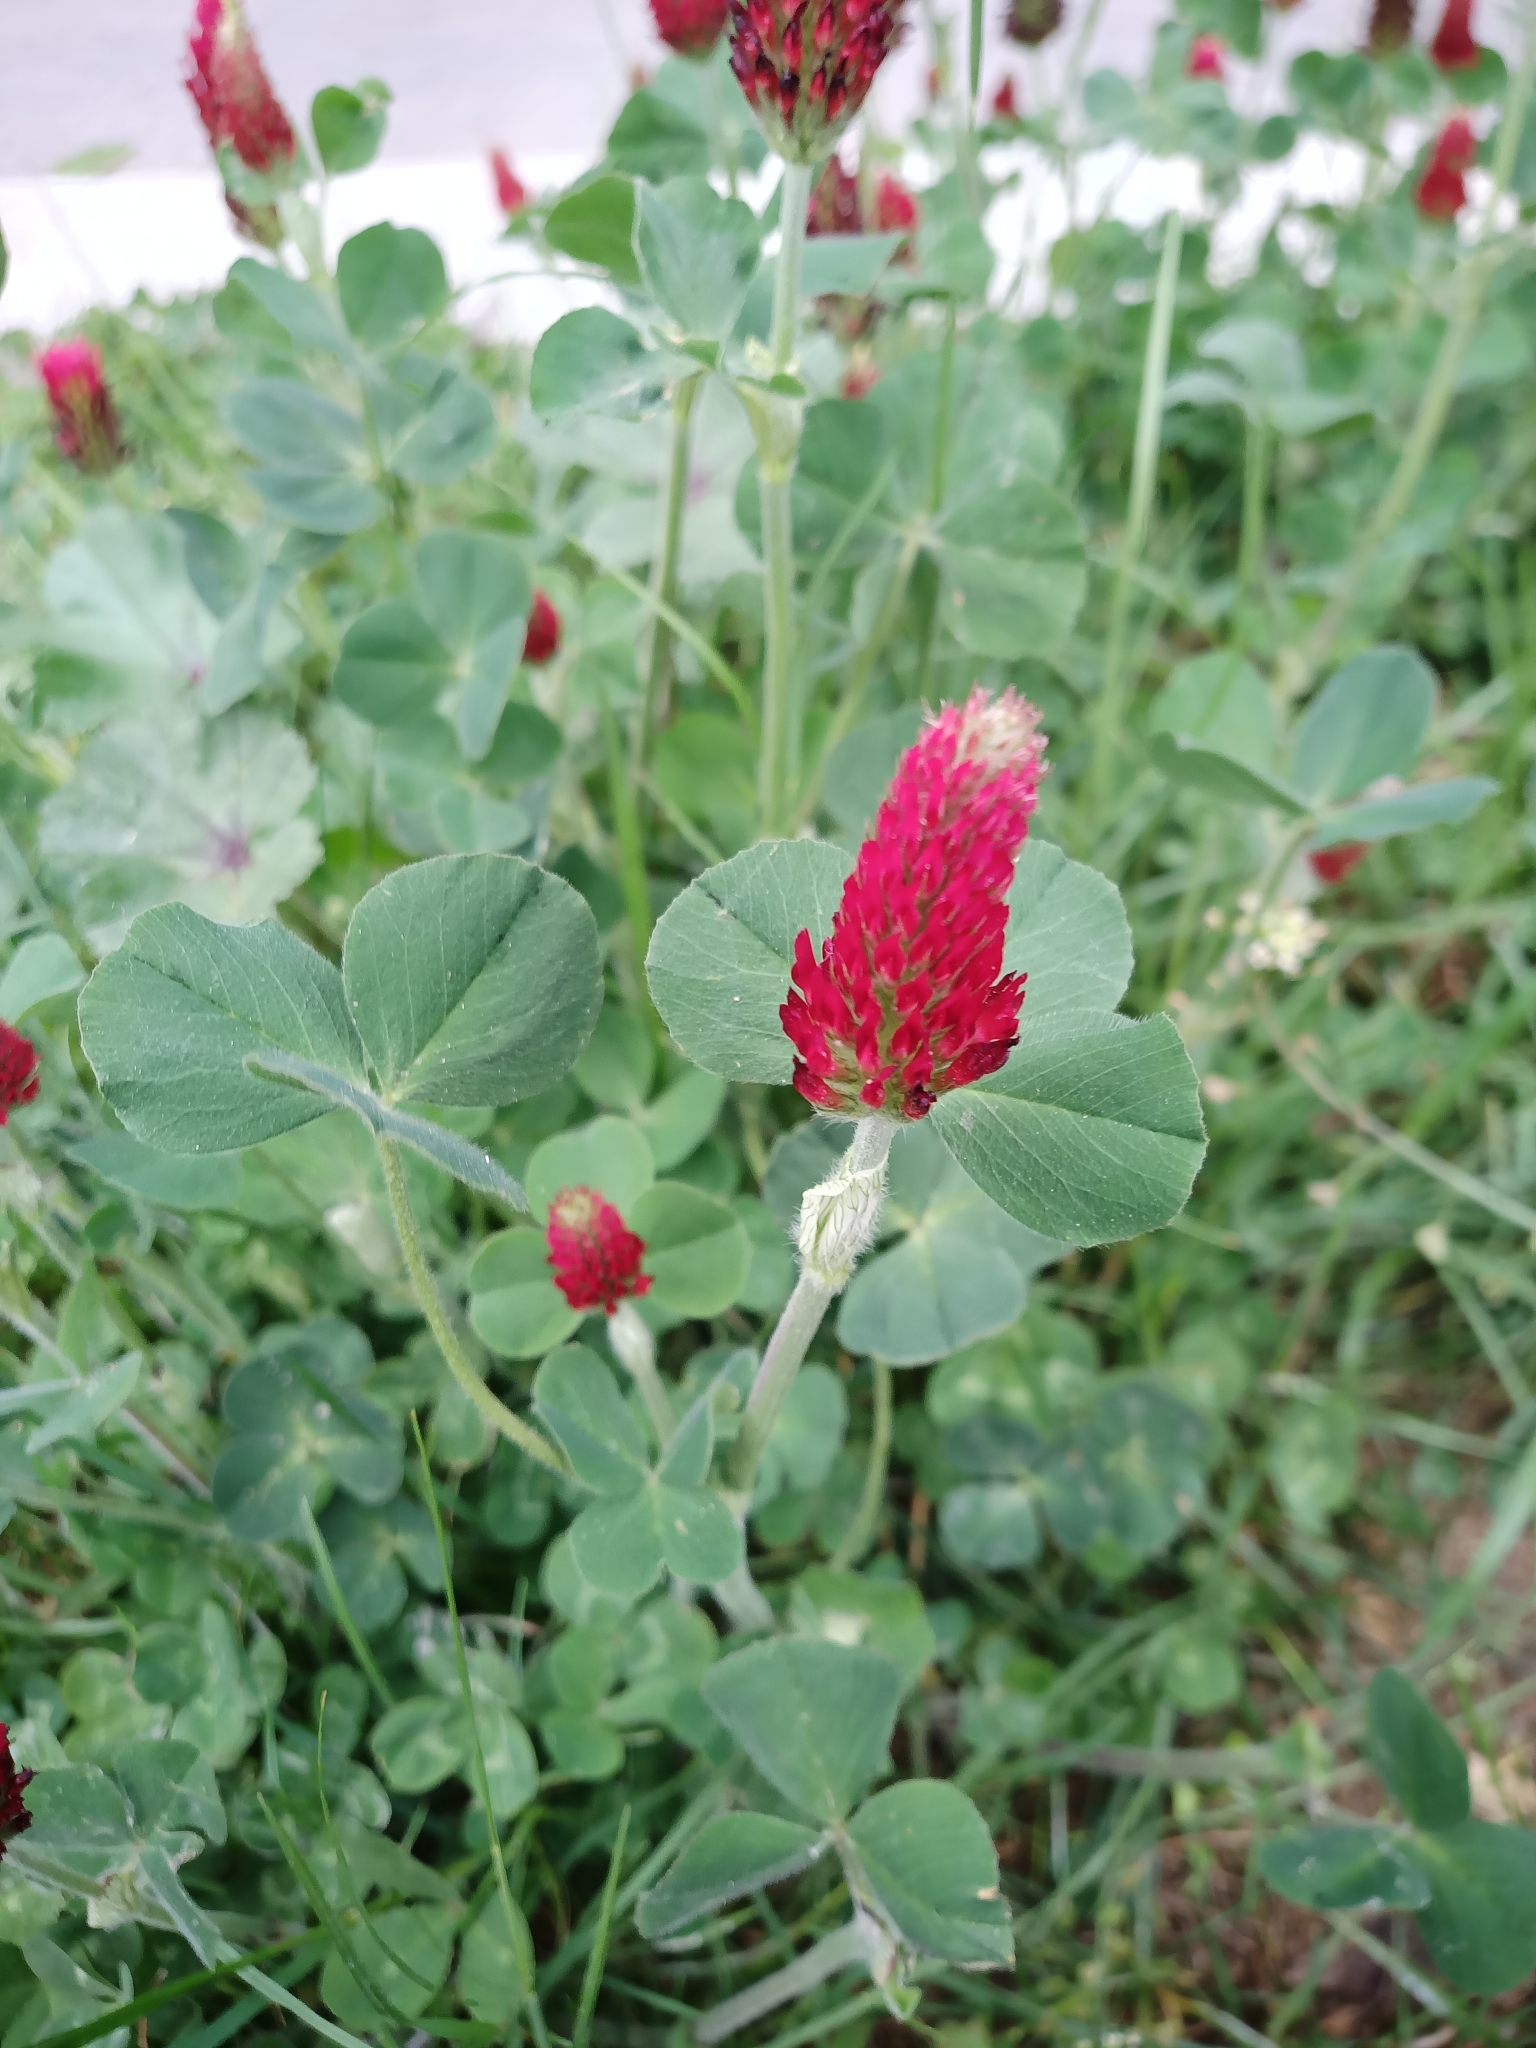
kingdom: Plantae
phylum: Tracheophyta
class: Magnoliopsida
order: Fabales
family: Fabaceae
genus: Trifolium
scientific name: Trifolium incarnatum
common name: Crimson clover
